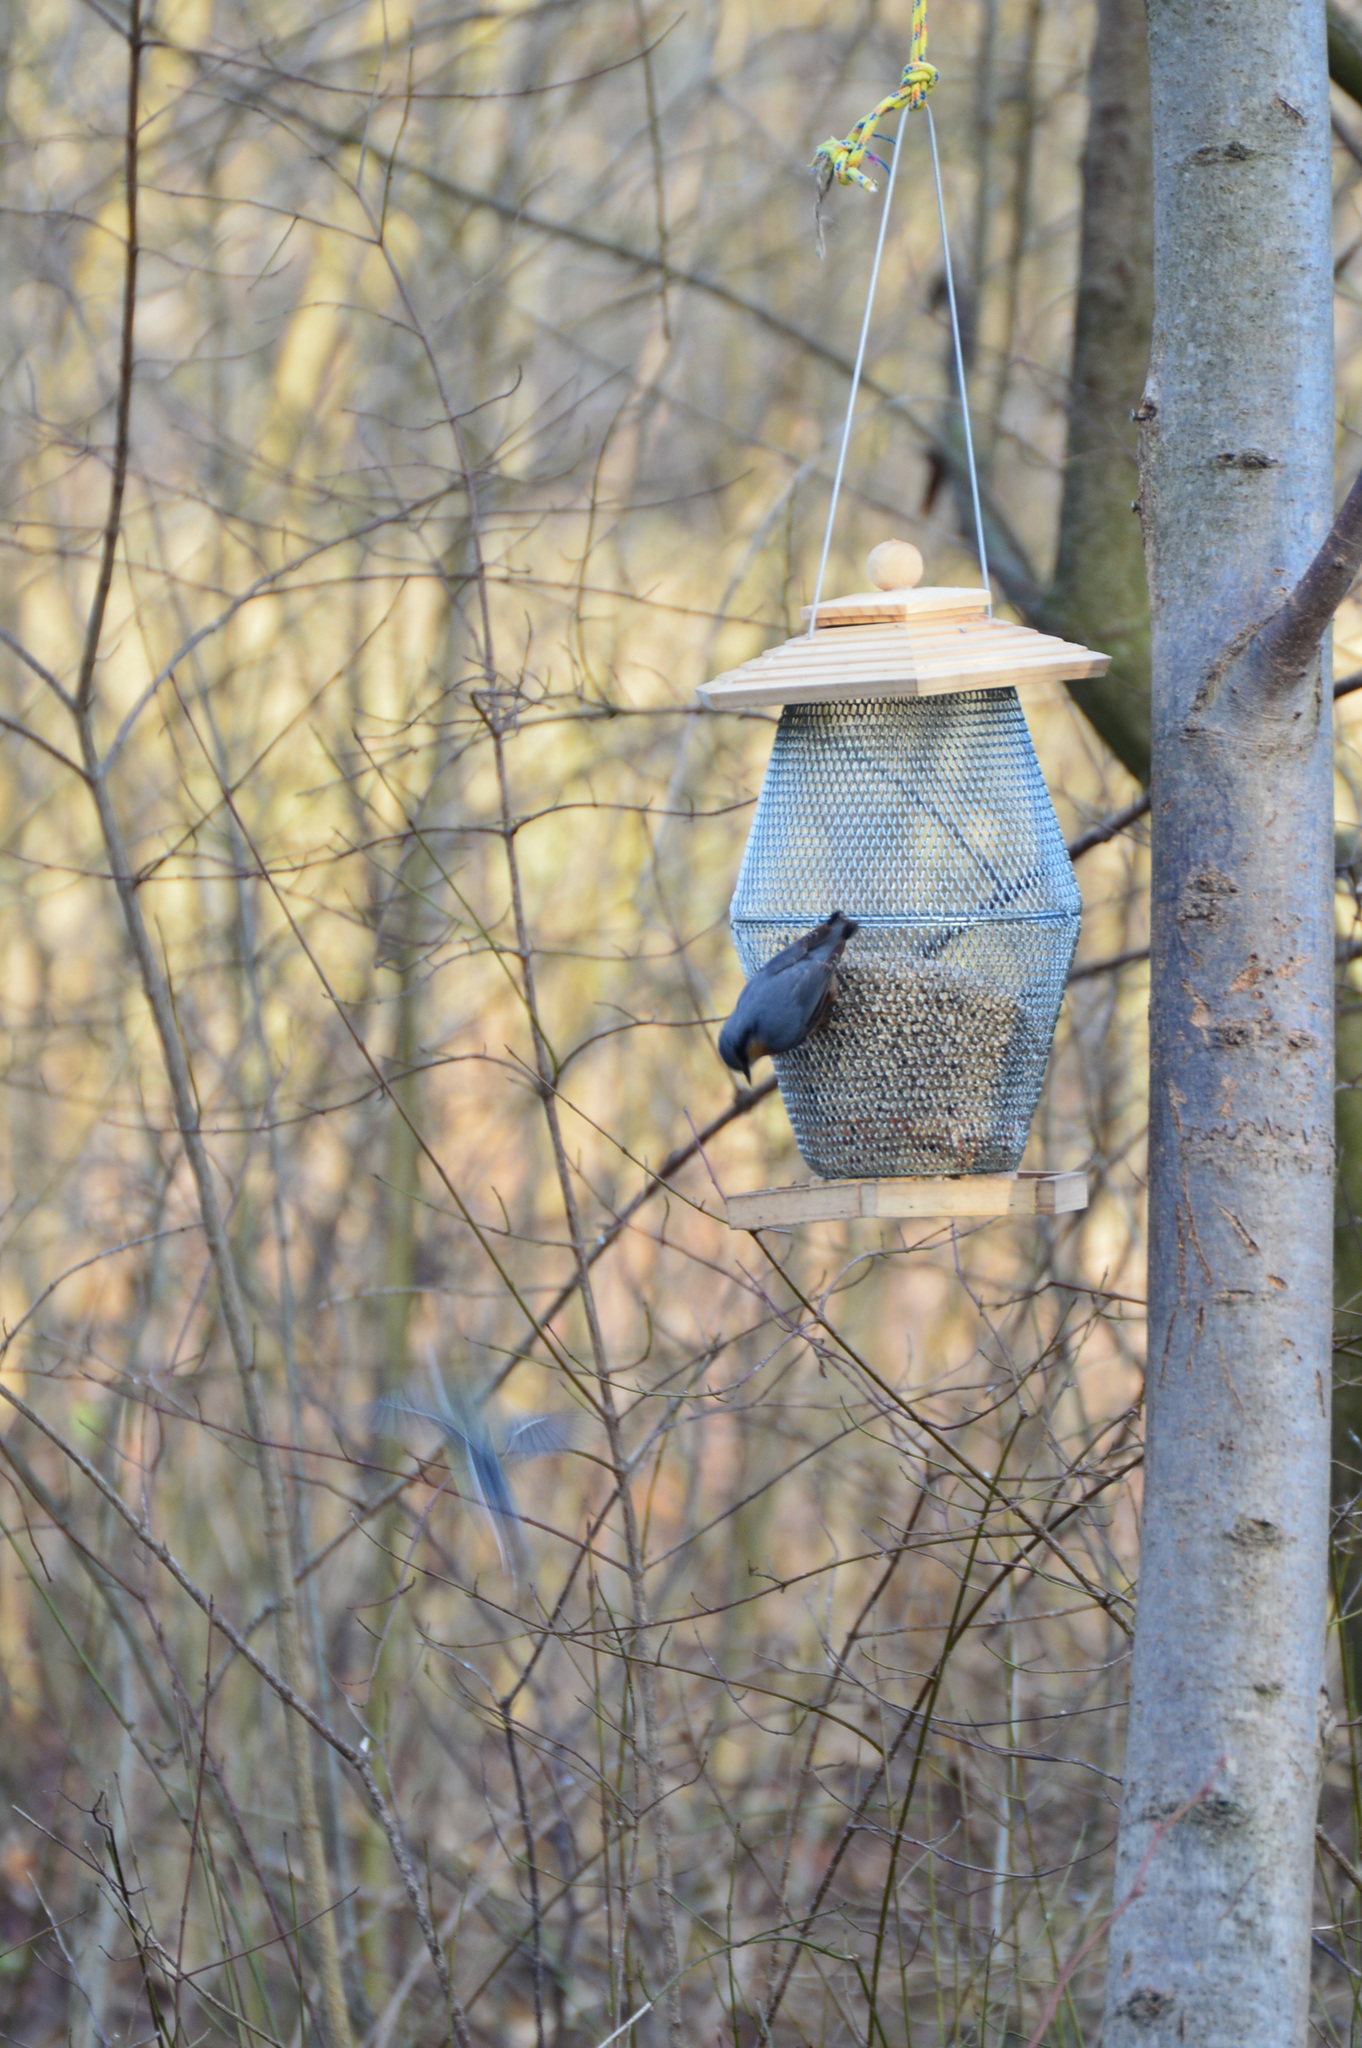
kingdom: Animalia
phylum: Chordata
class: Aves
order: Passeriformes
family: Sittidae
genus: Sitta
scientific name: Sitta europaea
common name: Eurasian nuthatch
